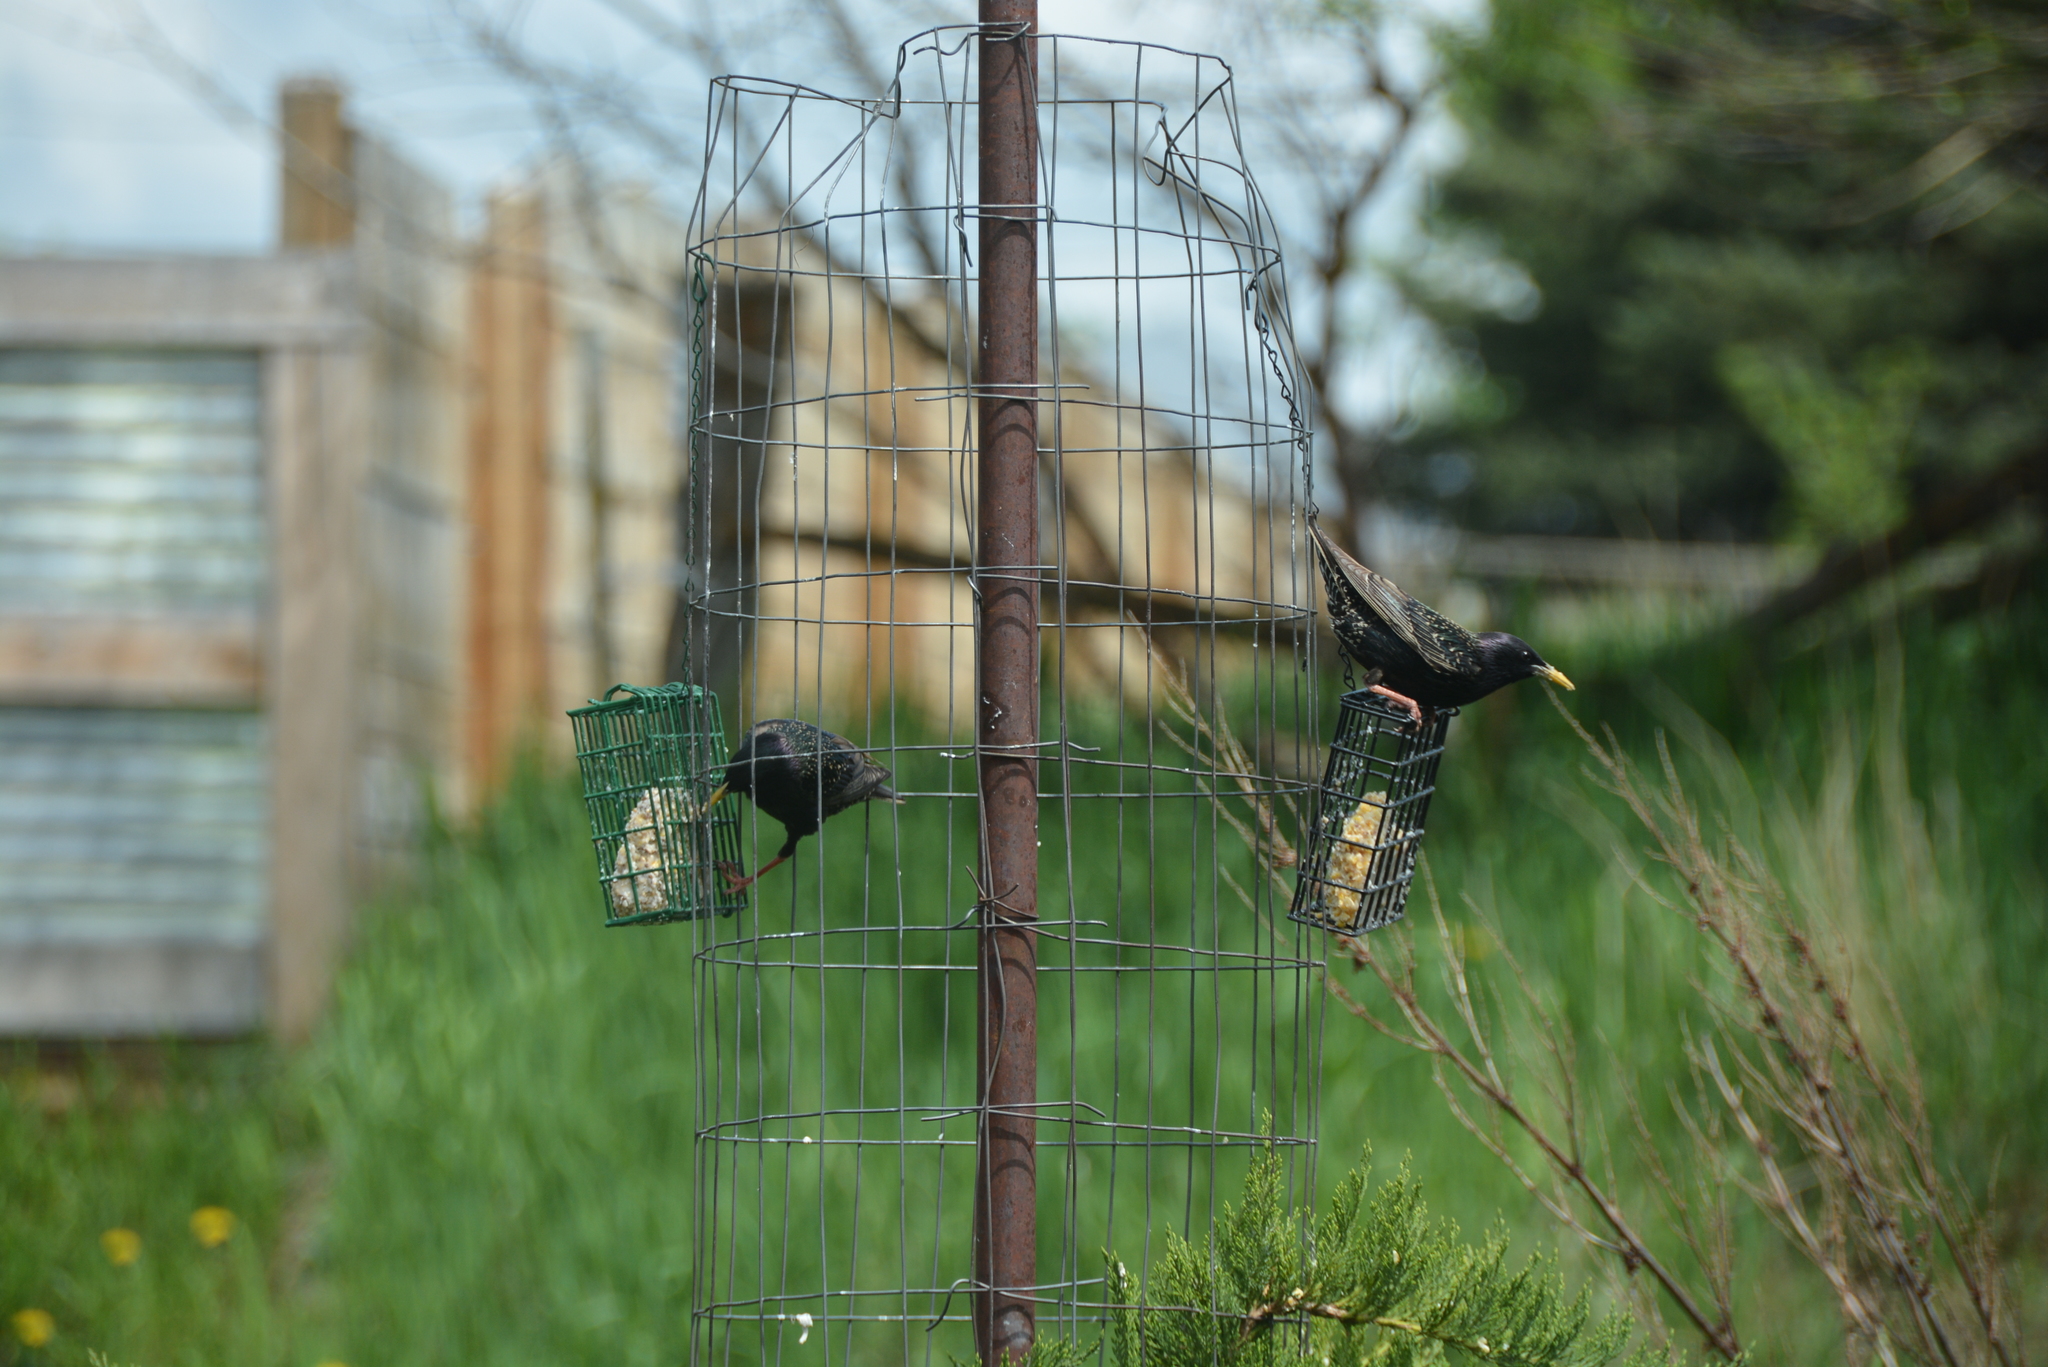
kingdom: Animalia
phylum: Chordata
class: Aves
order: Passeriformes
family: Sturnidae
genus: Sturnus
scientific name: Sturnus vulgaris
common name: Common starling
